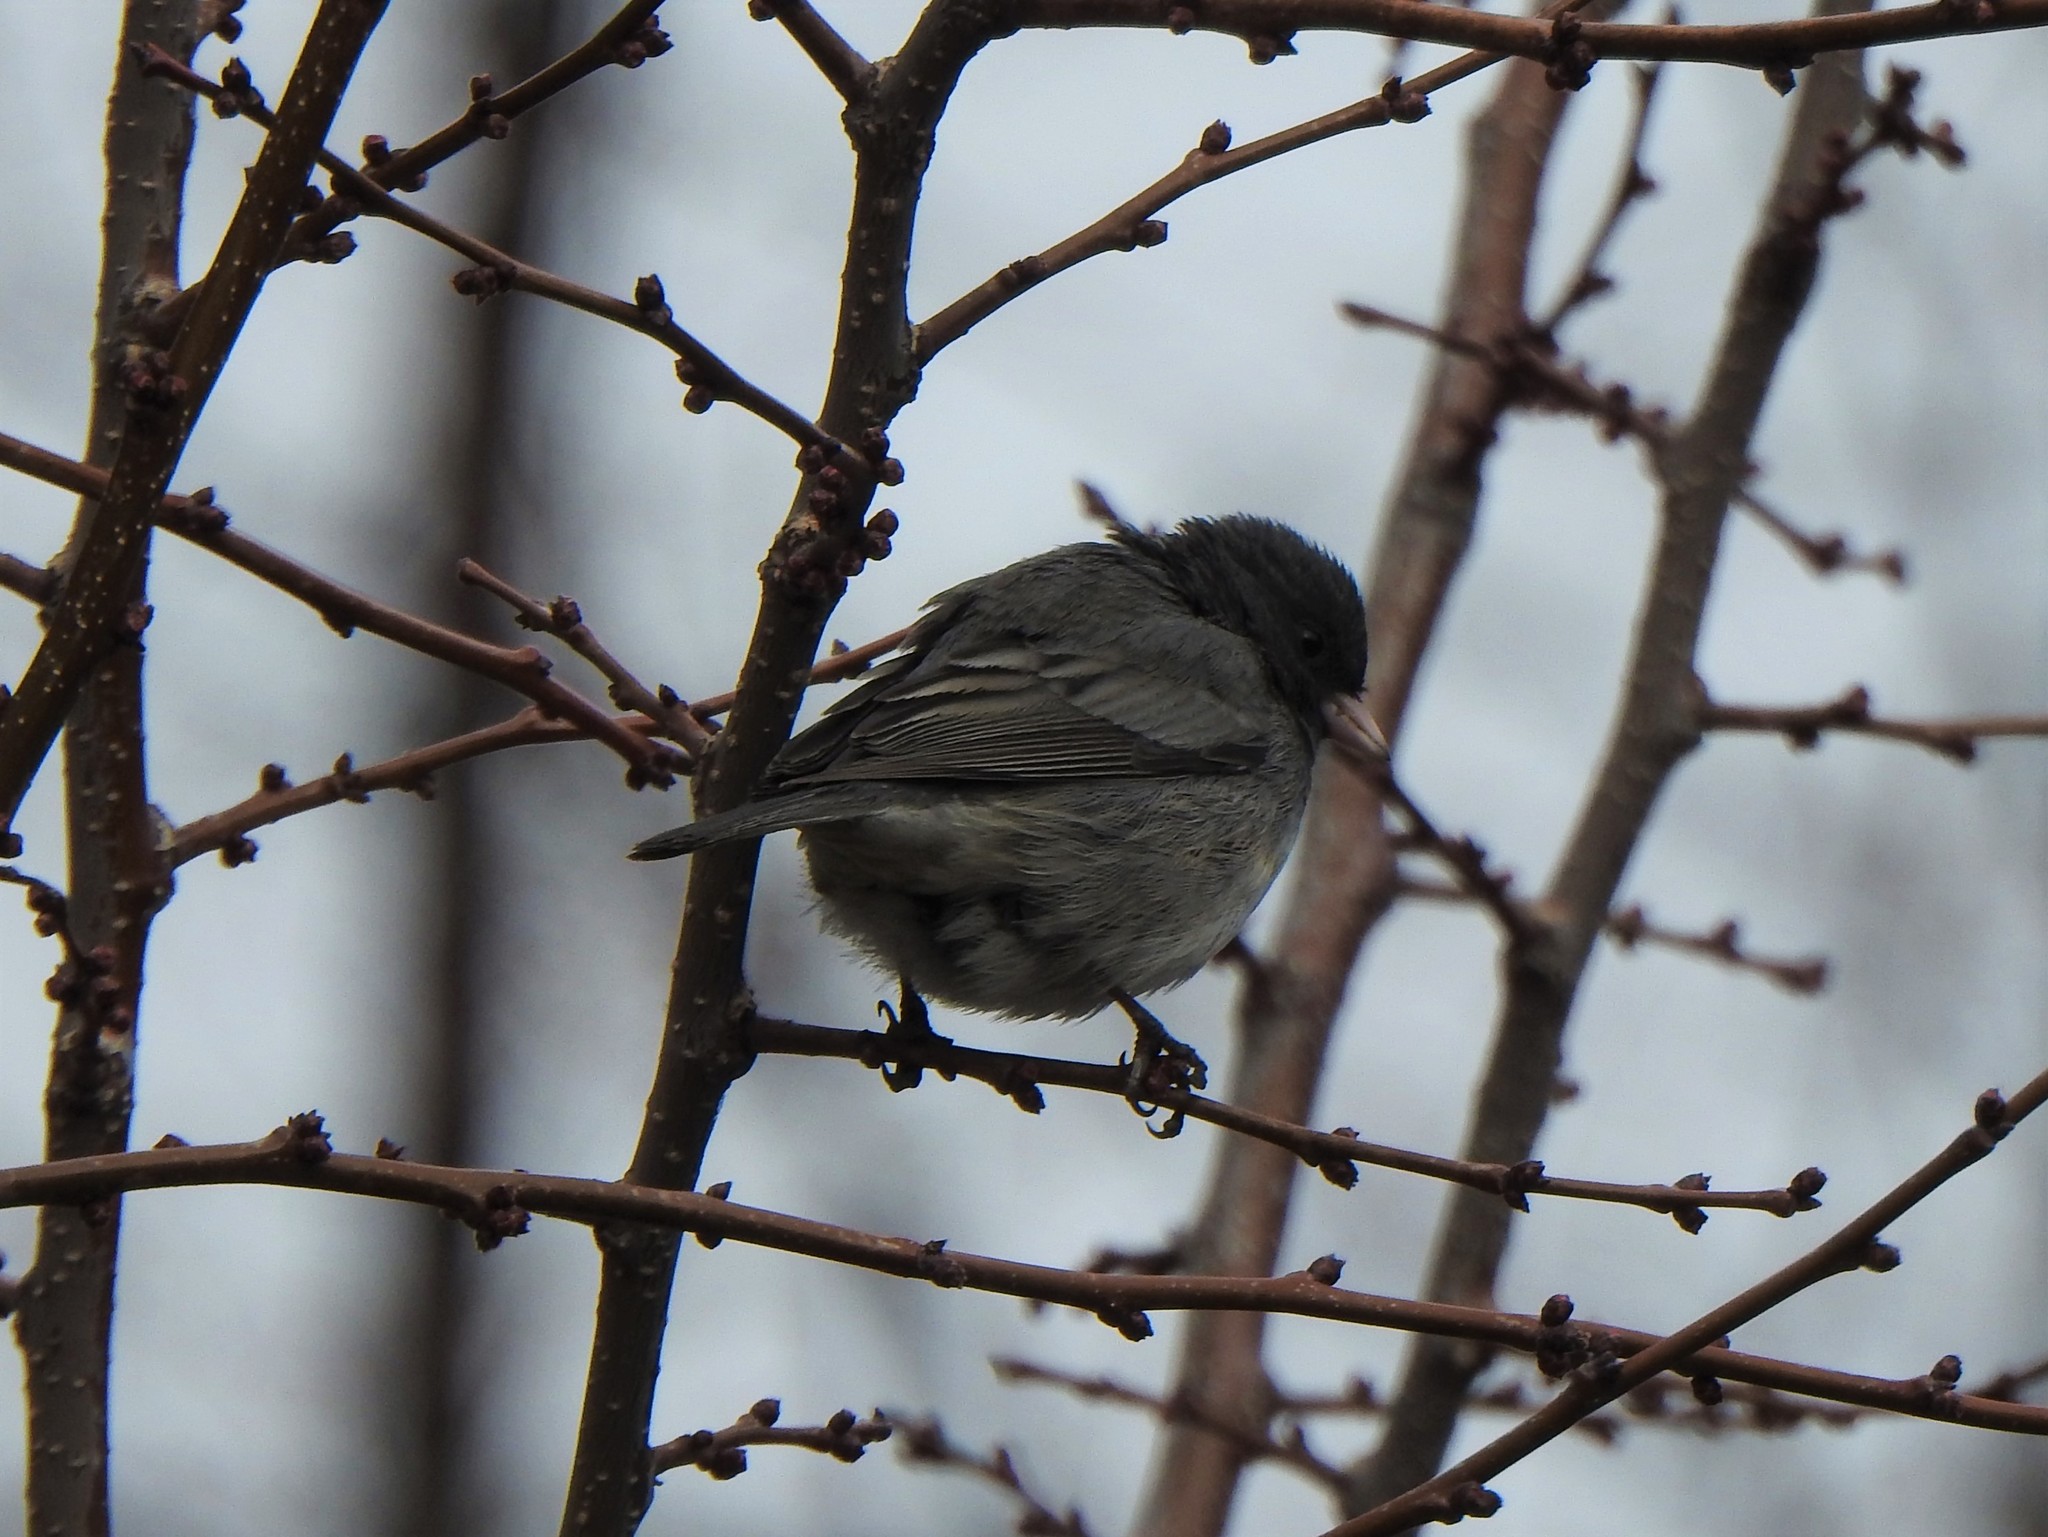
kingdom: Animalia
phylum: Chordata
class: Aves
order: Passeriformes
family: Passerellidae
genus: Junco
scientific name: Junco hyemalis
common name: Dark-eyed junco
